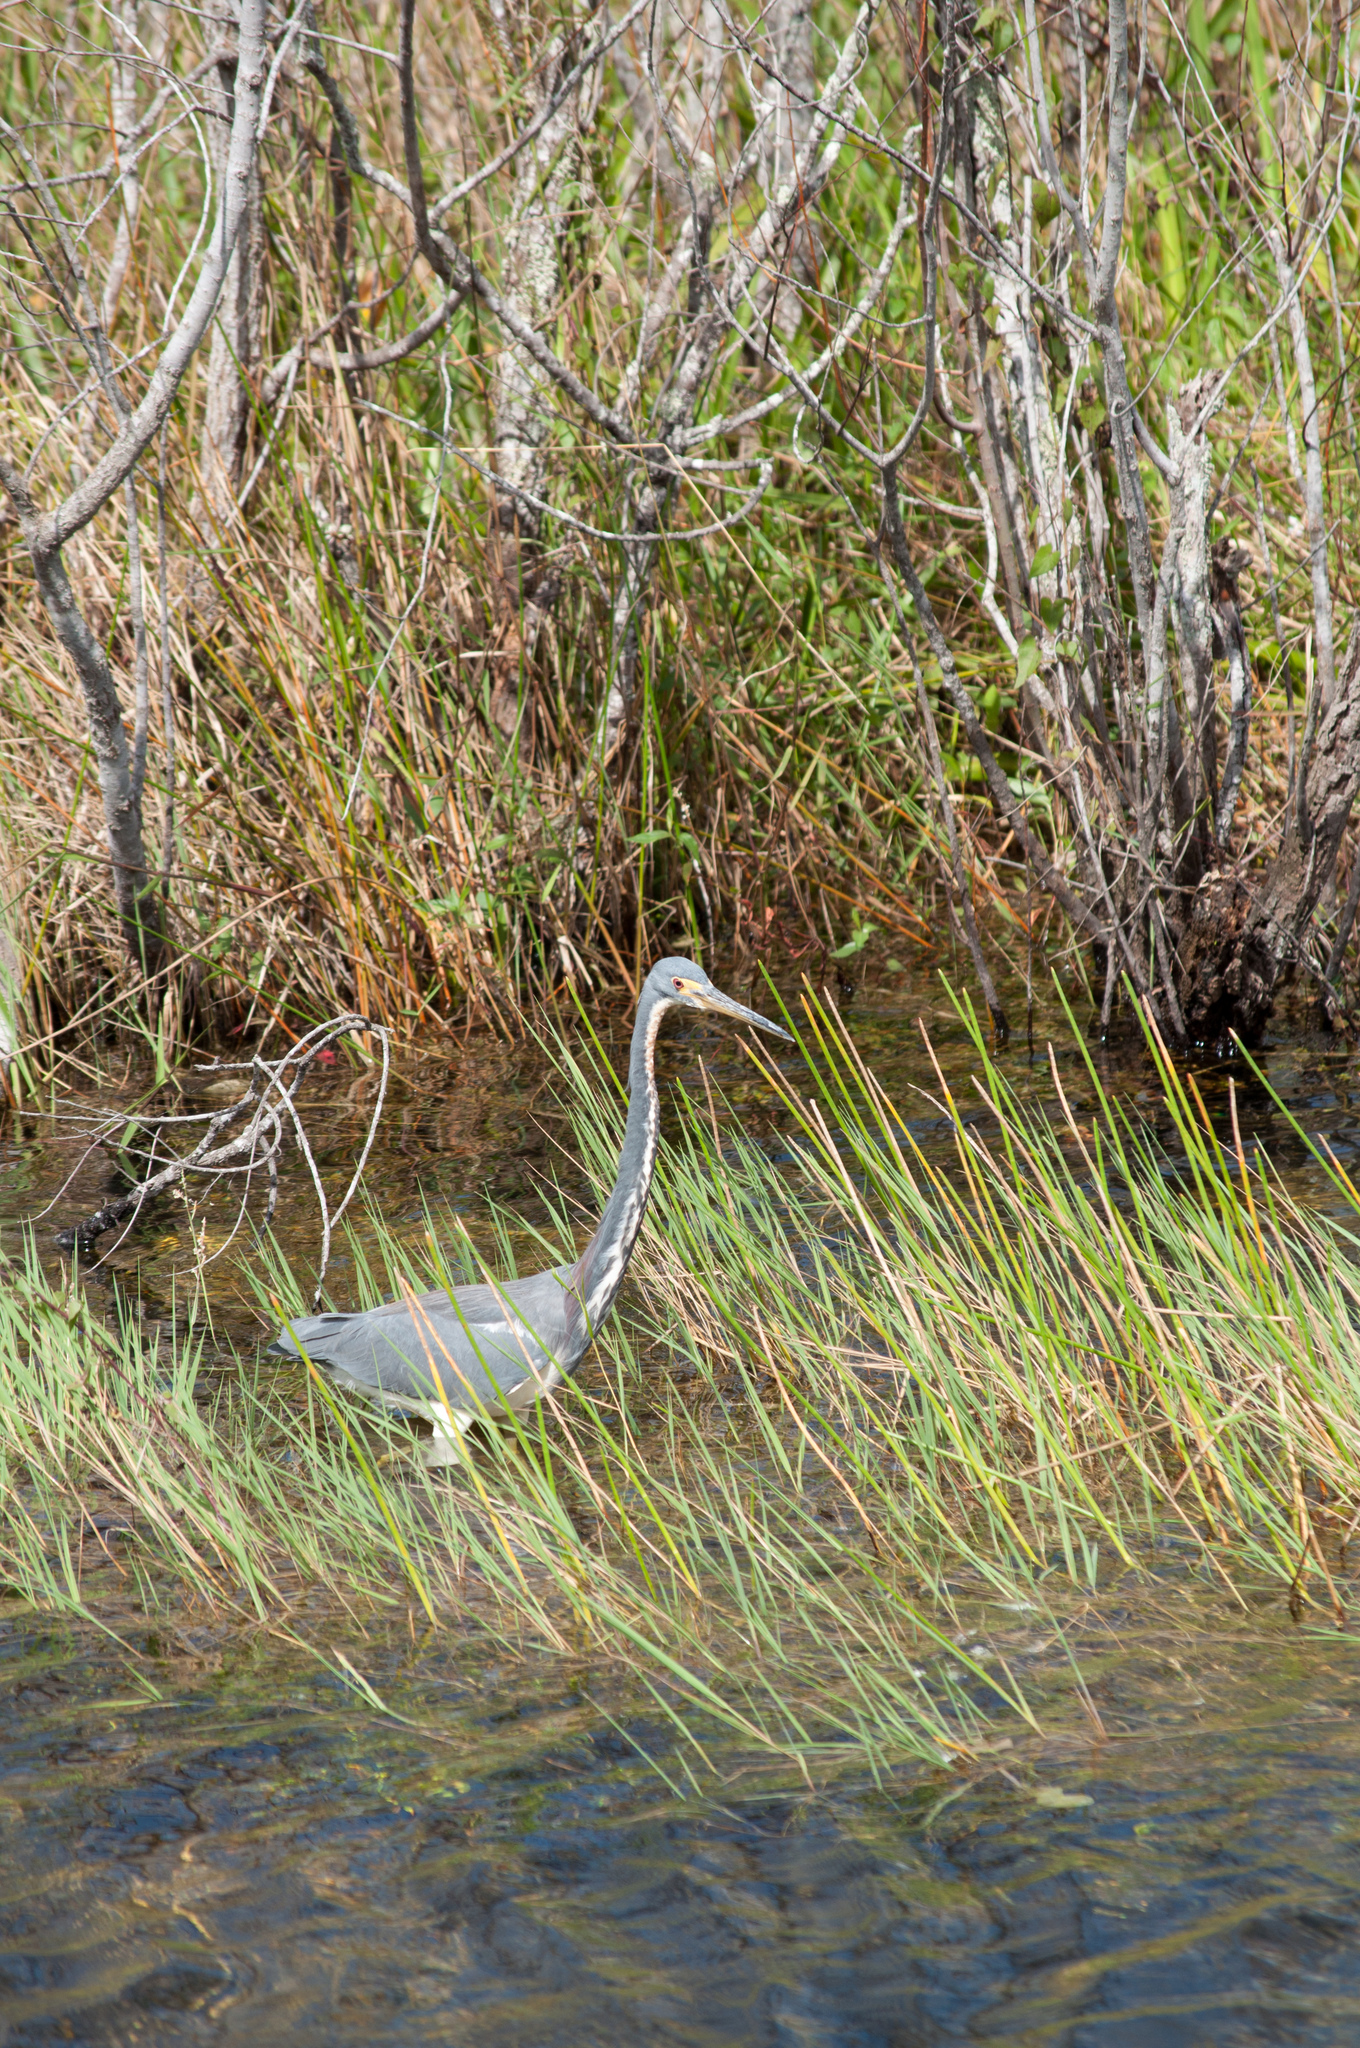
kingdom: Animalia
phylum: Chordata
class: Aves
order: Pelecaniformes
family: Ardeidae
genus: Egretta
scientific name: Egretta tricolor
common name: Tricolored heron
